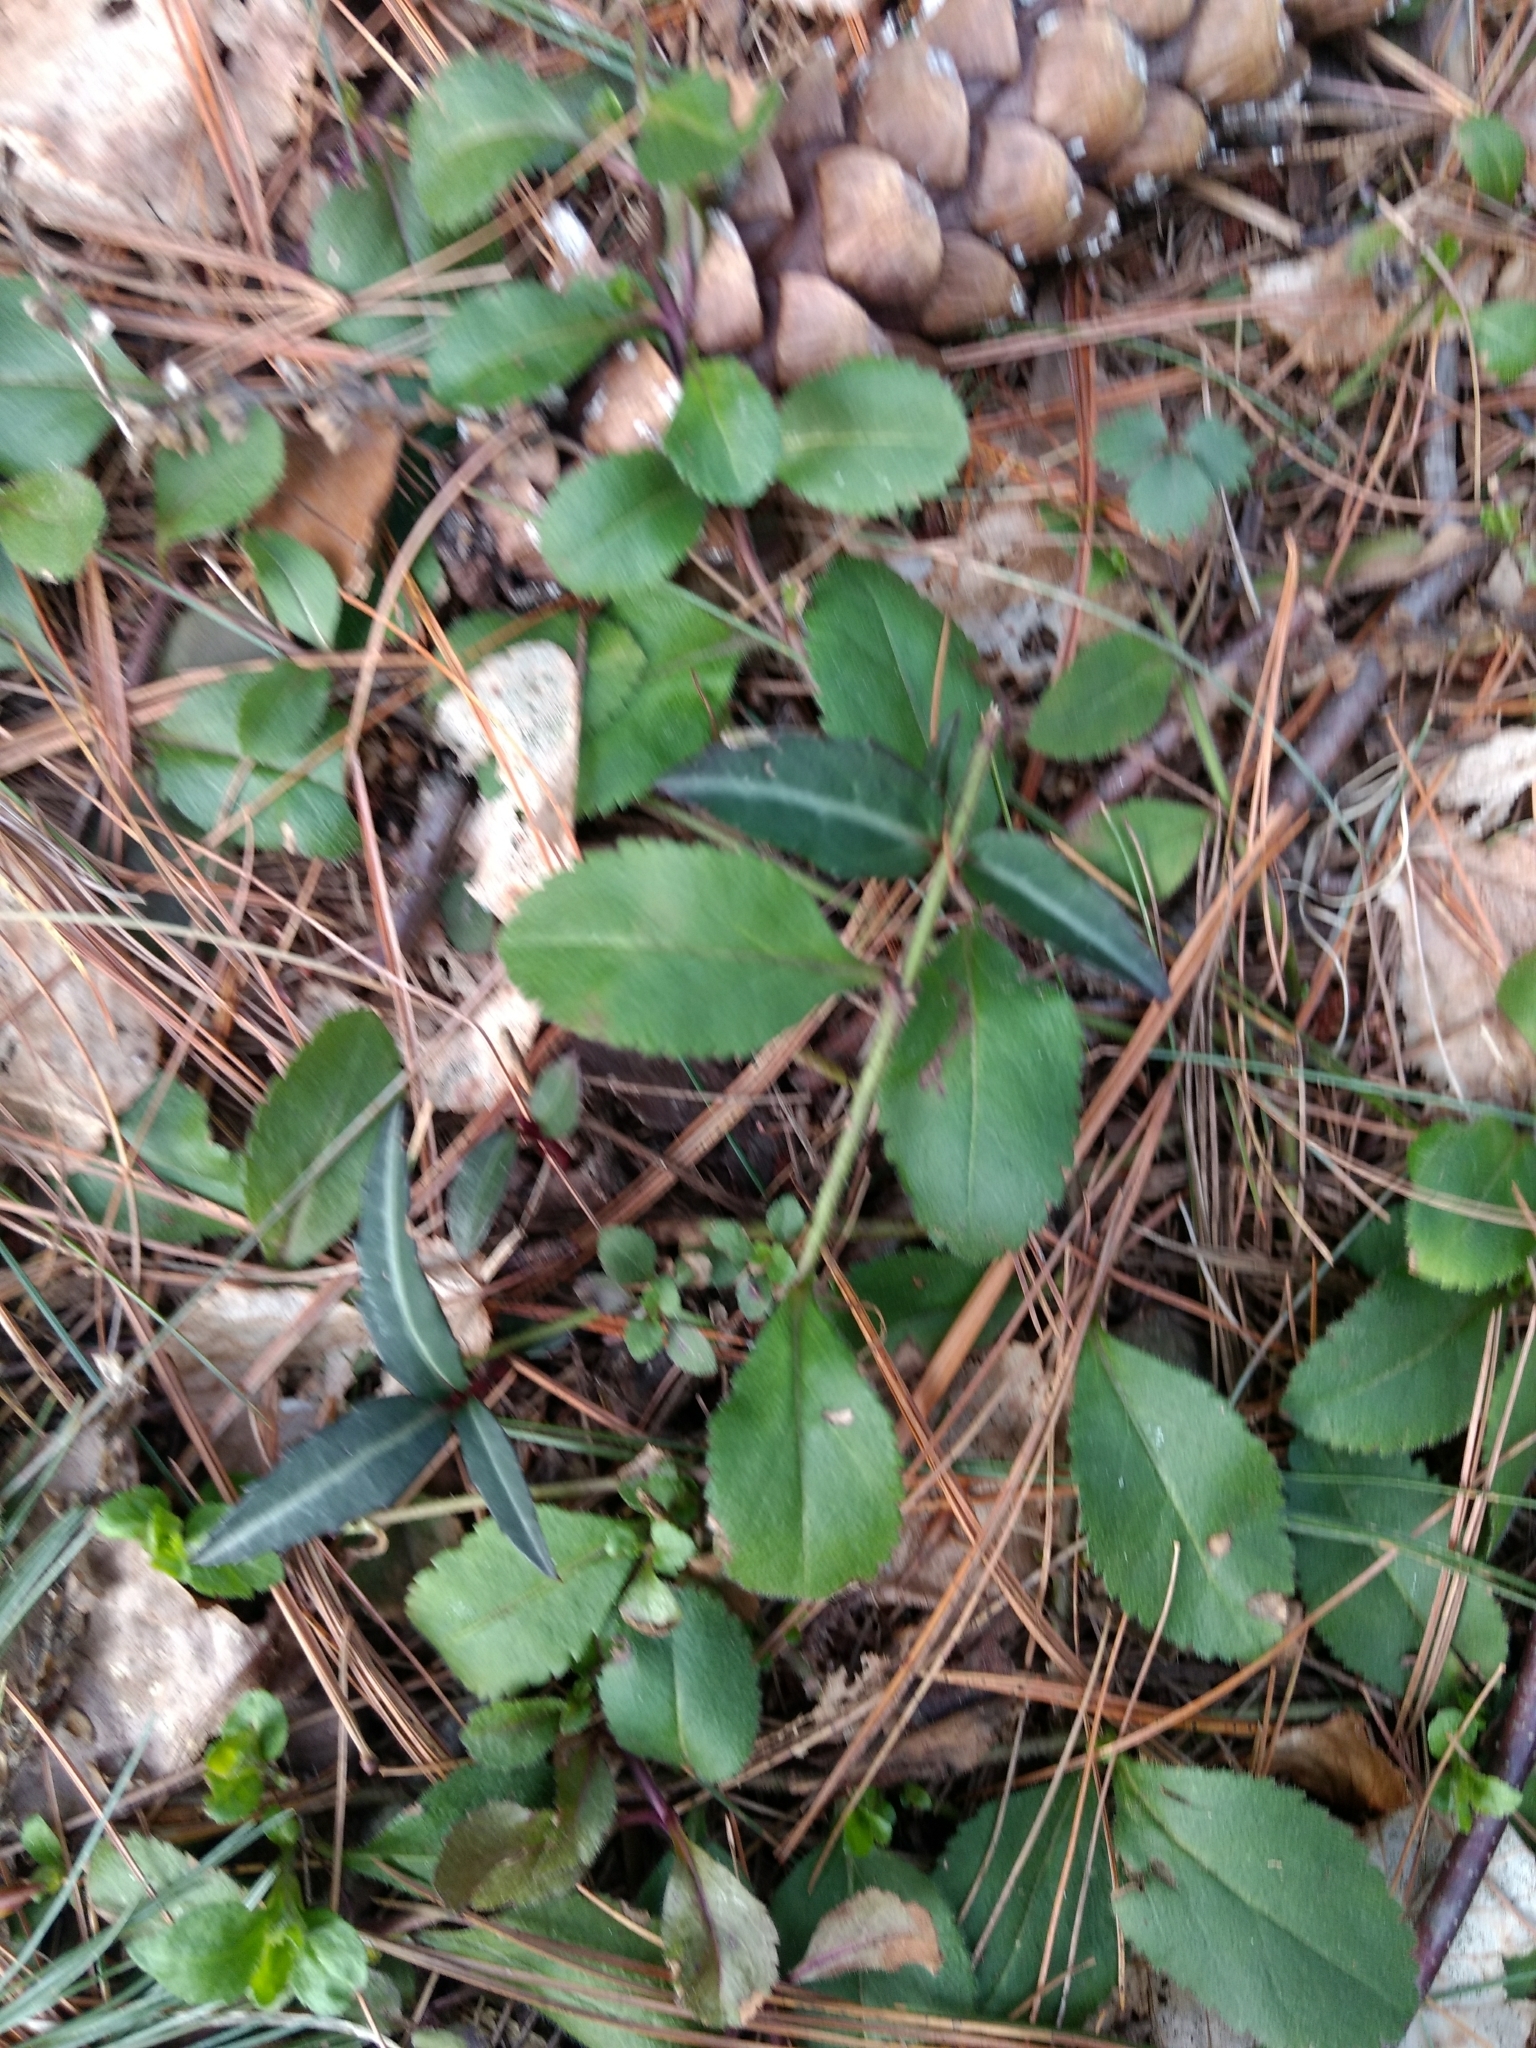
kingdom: Plantae
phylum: Tracheophyta
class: Magnoliopsida
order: Ericales
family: Ericaceae
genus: Chimaphila
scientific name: Chimaphila maculata
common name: Spotted pipsissewa
